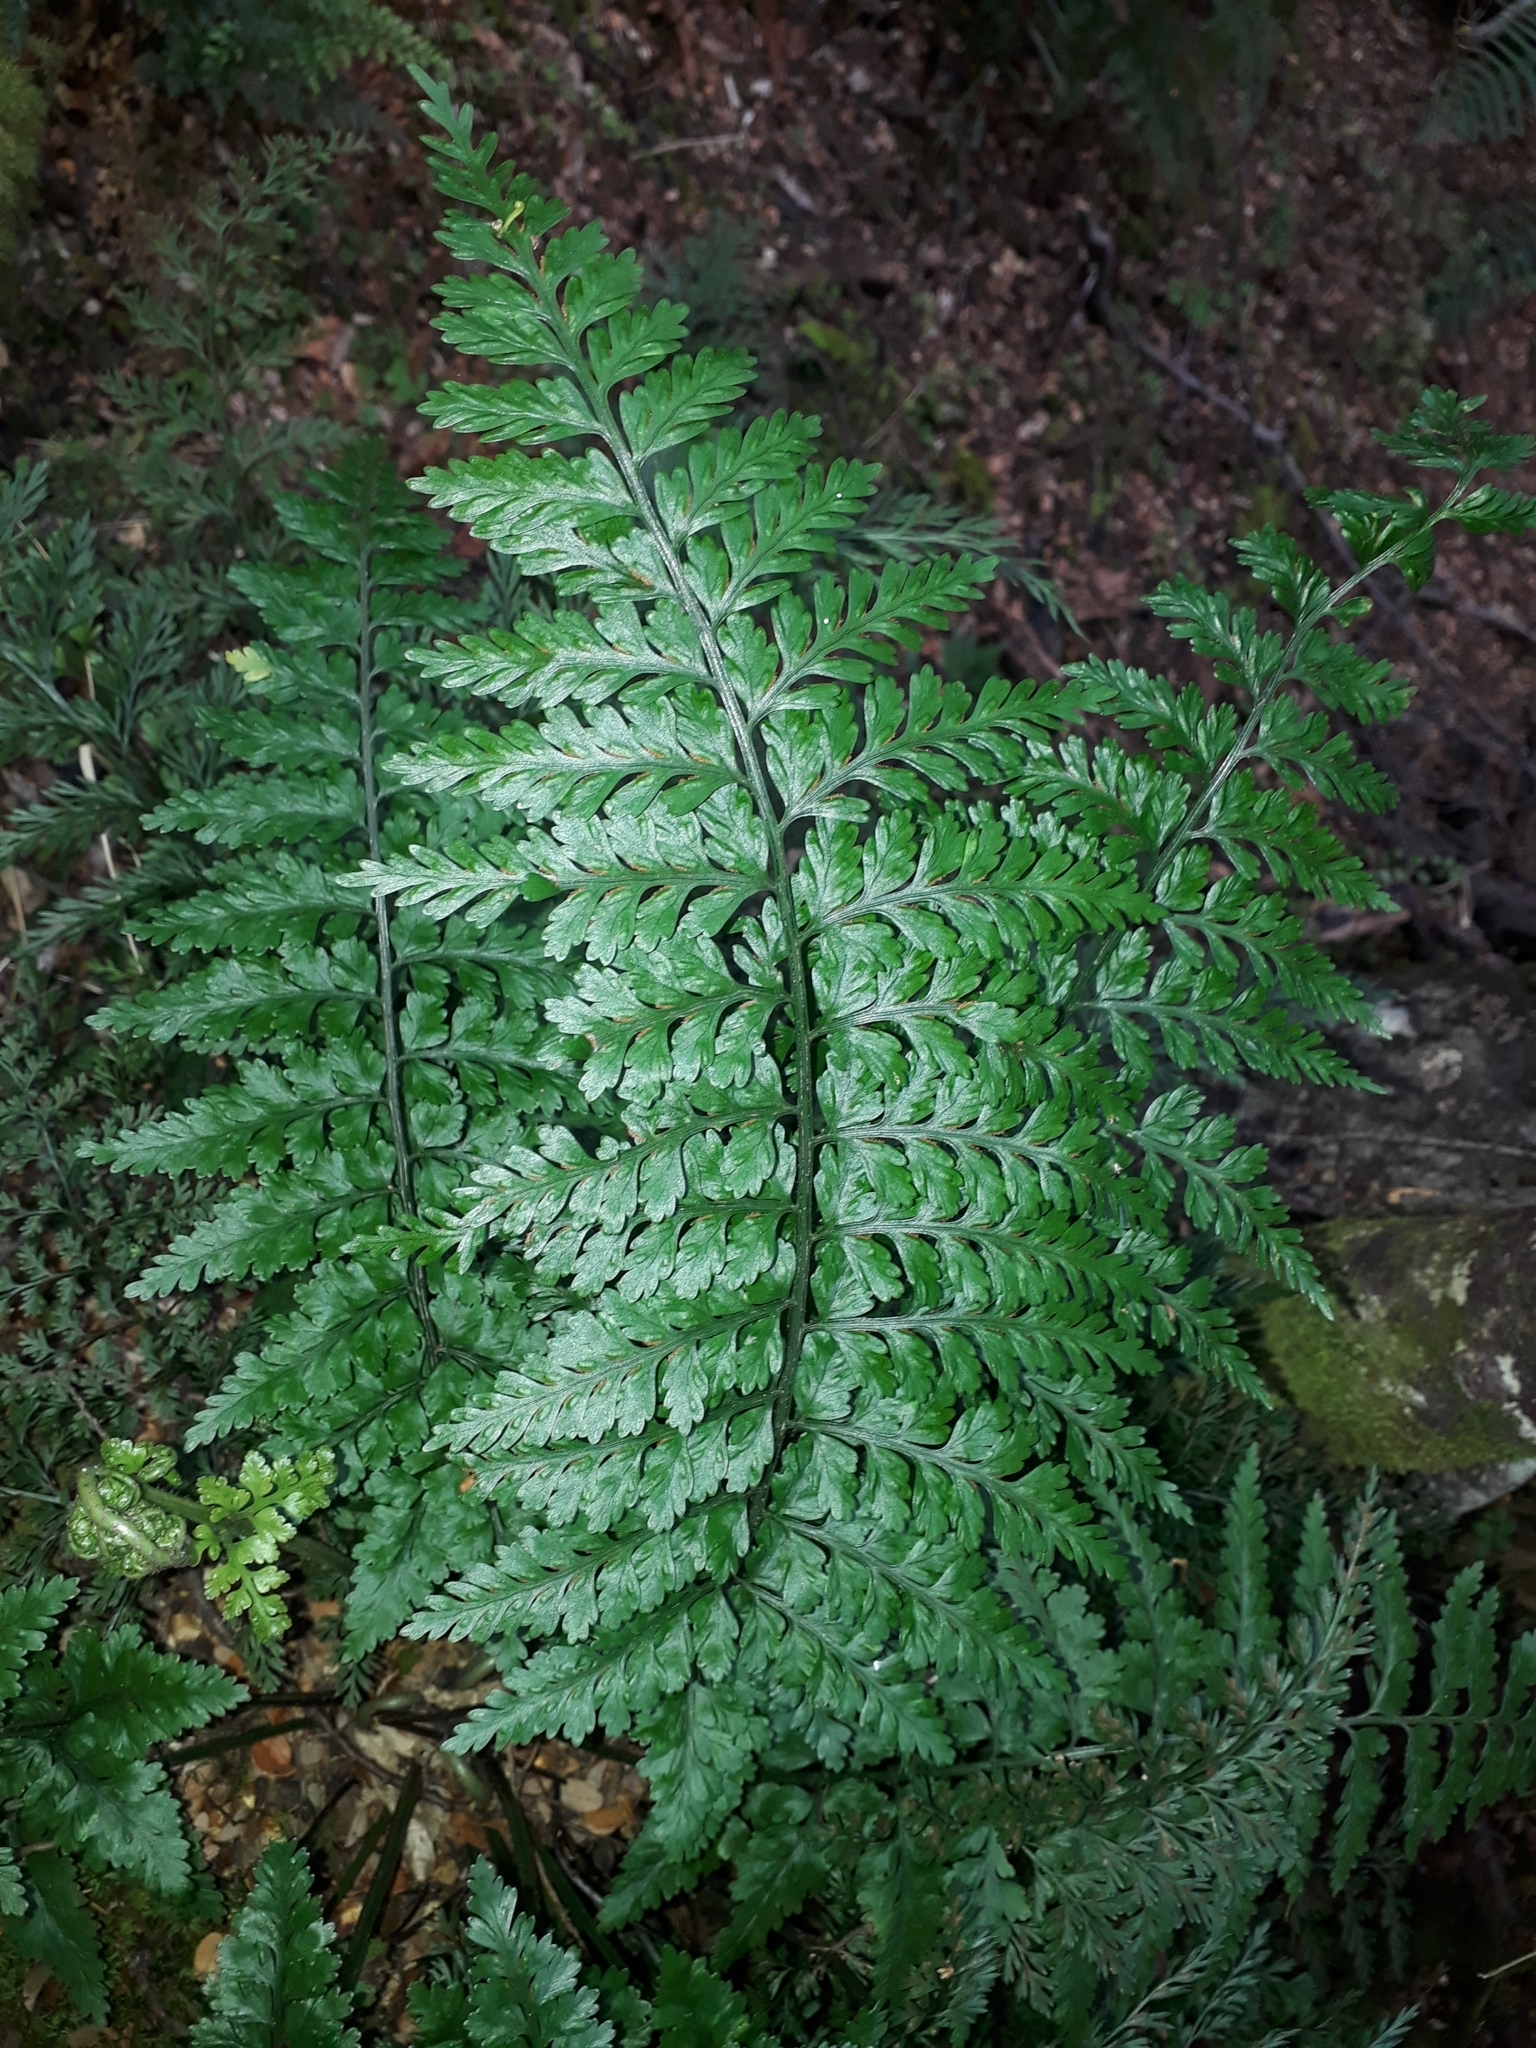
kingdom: Plantae
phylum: Tracheophyta
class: Polypodiopsida
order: Polypodiales
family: Aspleniaceae
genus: Asplenium
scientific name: Asplenium
